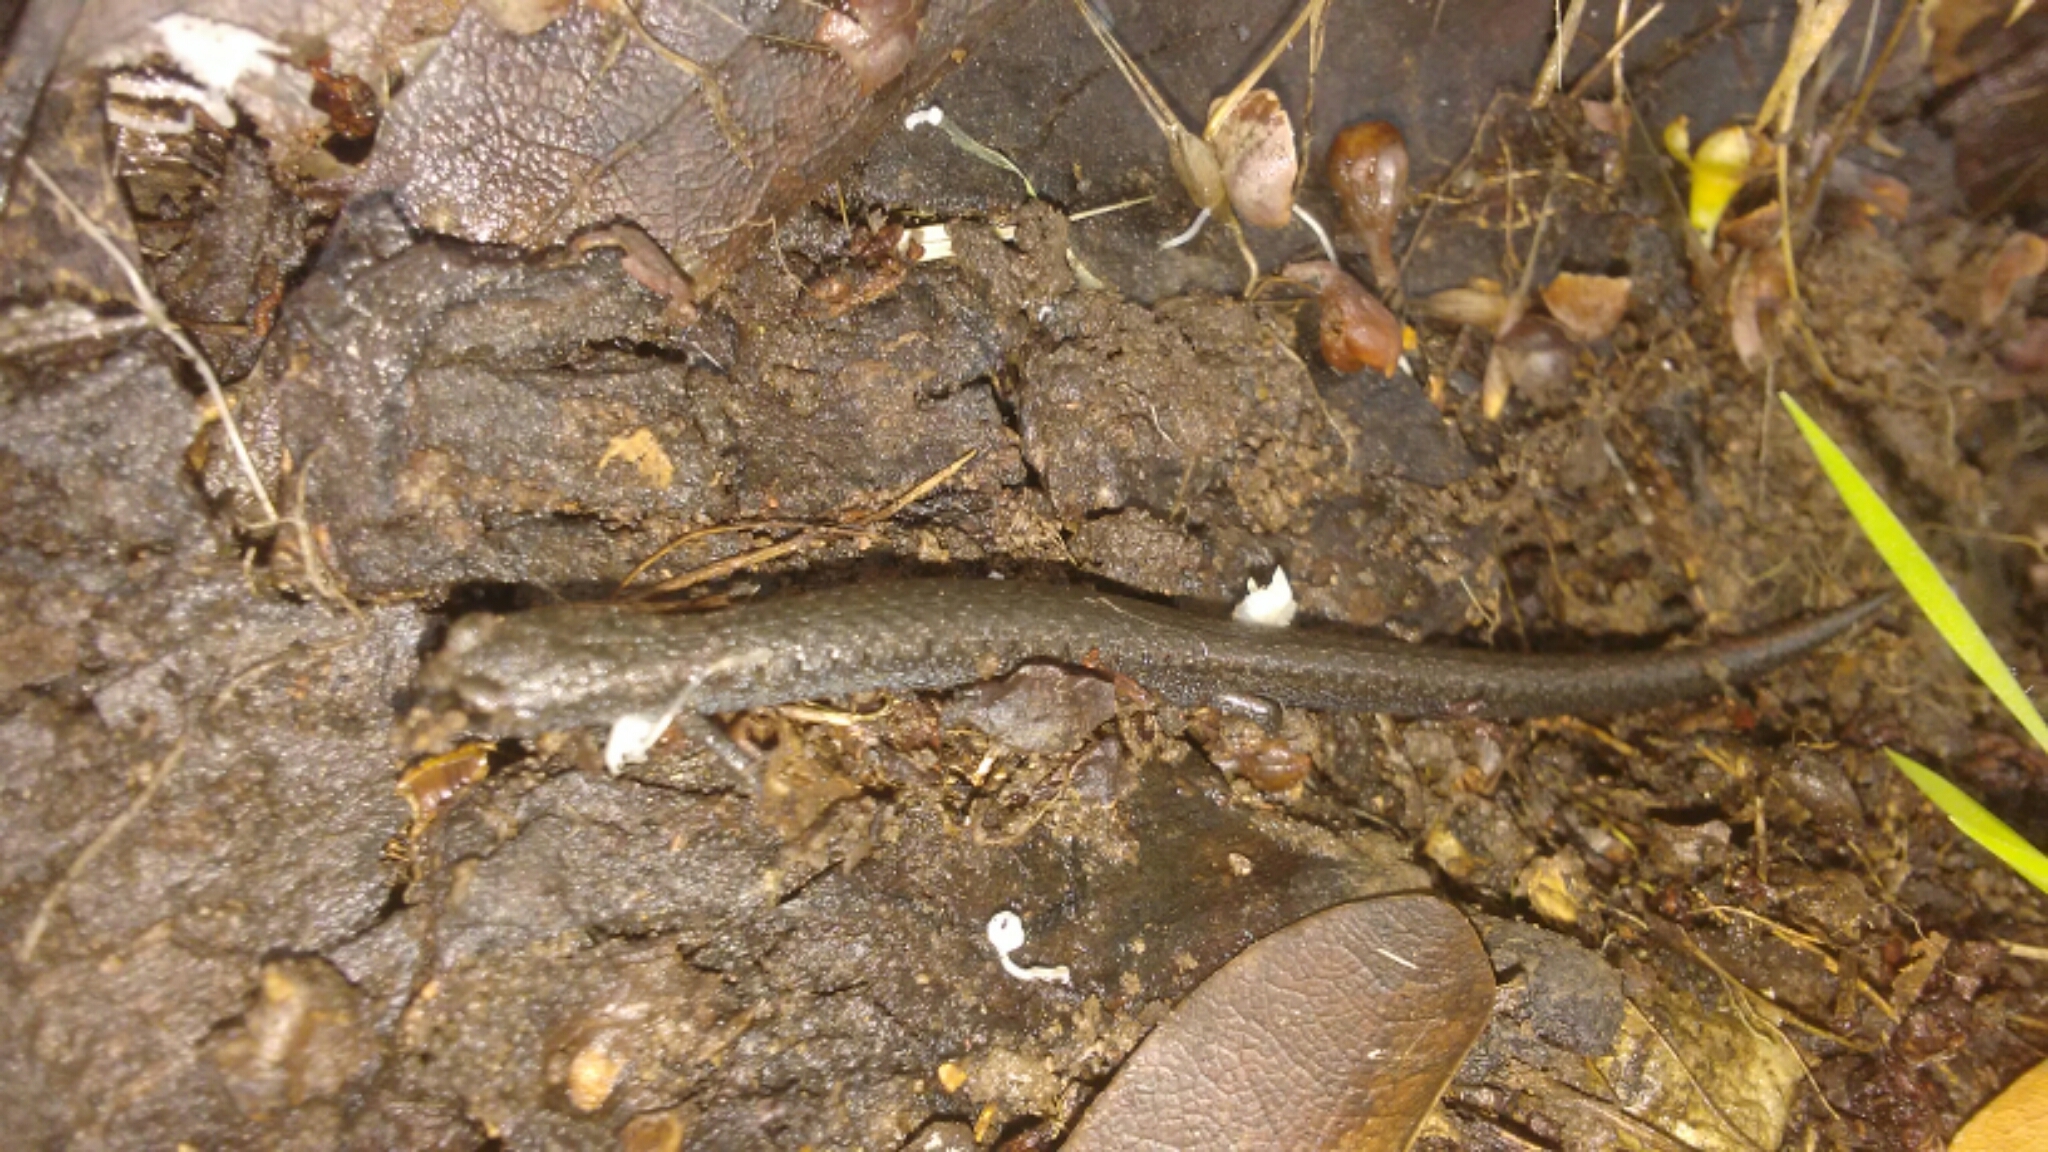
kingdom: Animalia
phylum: Chordata
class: Amphibia
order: Caudata
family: Plethodontidae
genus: Batrachoseps
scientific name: Batrachoseps attenuatus
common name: California slender salamander
